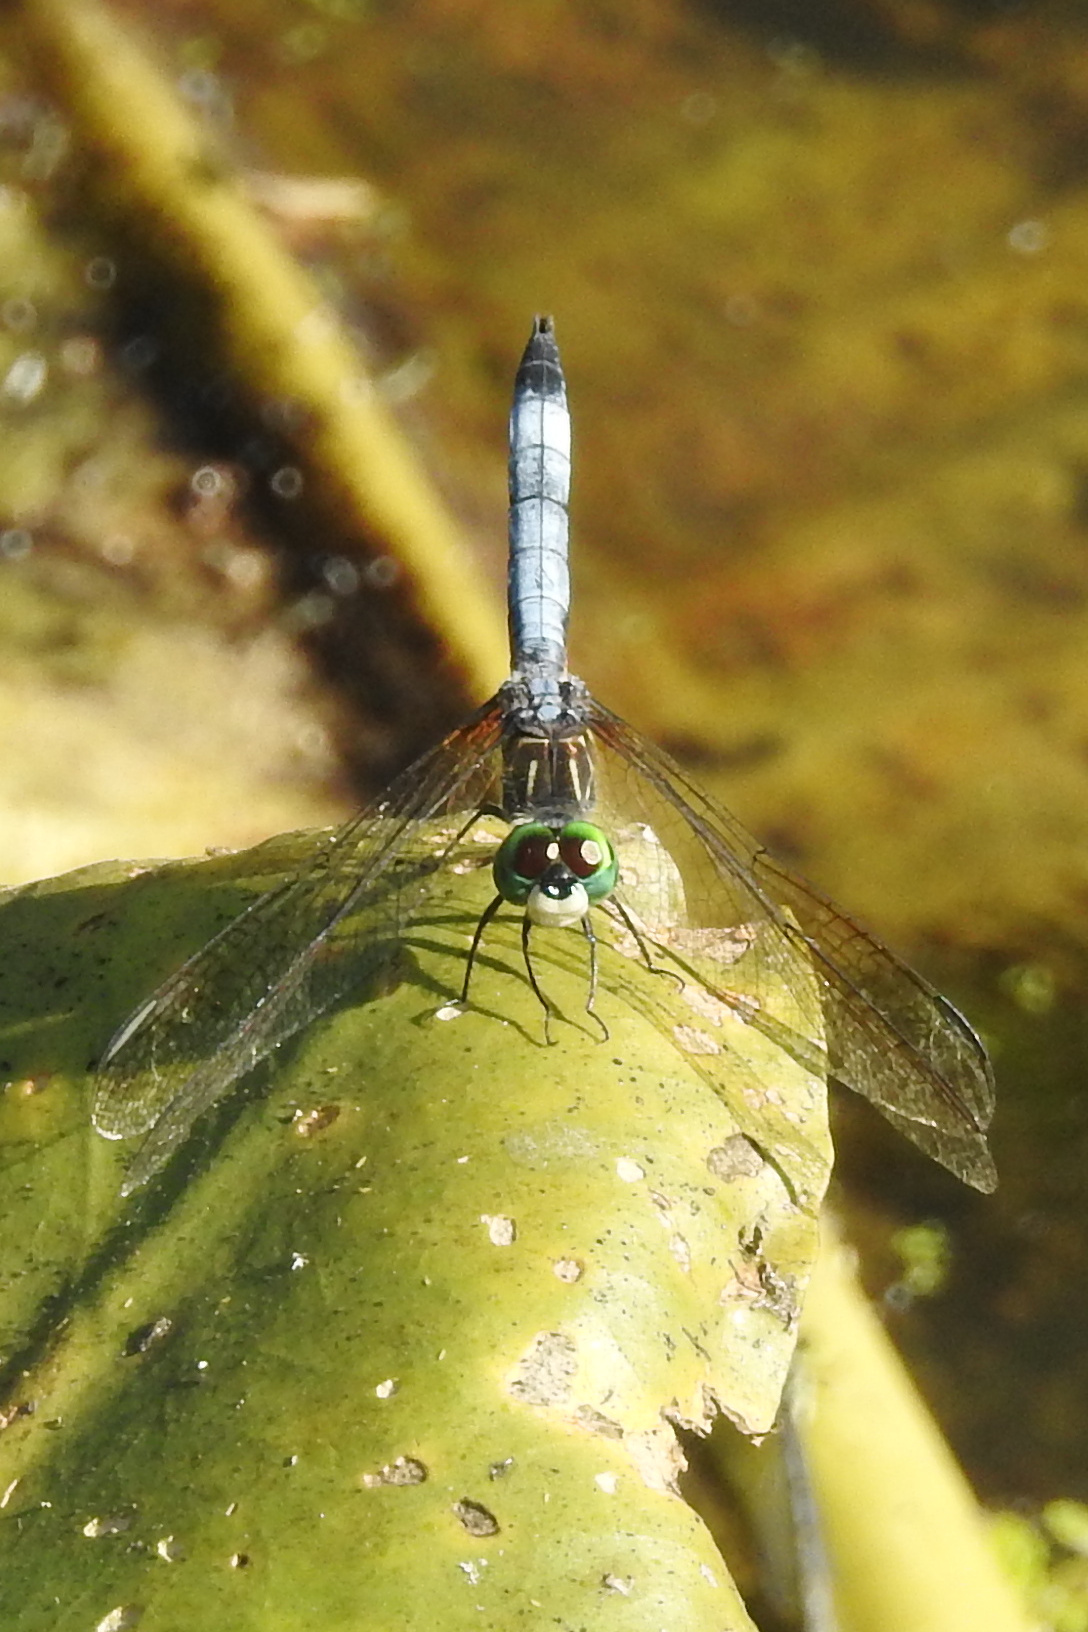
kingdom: Animalia
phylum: Arthropoda
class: Insecta
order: Odonata
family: Libellulidae
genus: Pachydiplax
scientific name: Pachydiplax longipennis
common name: Blue dasher
